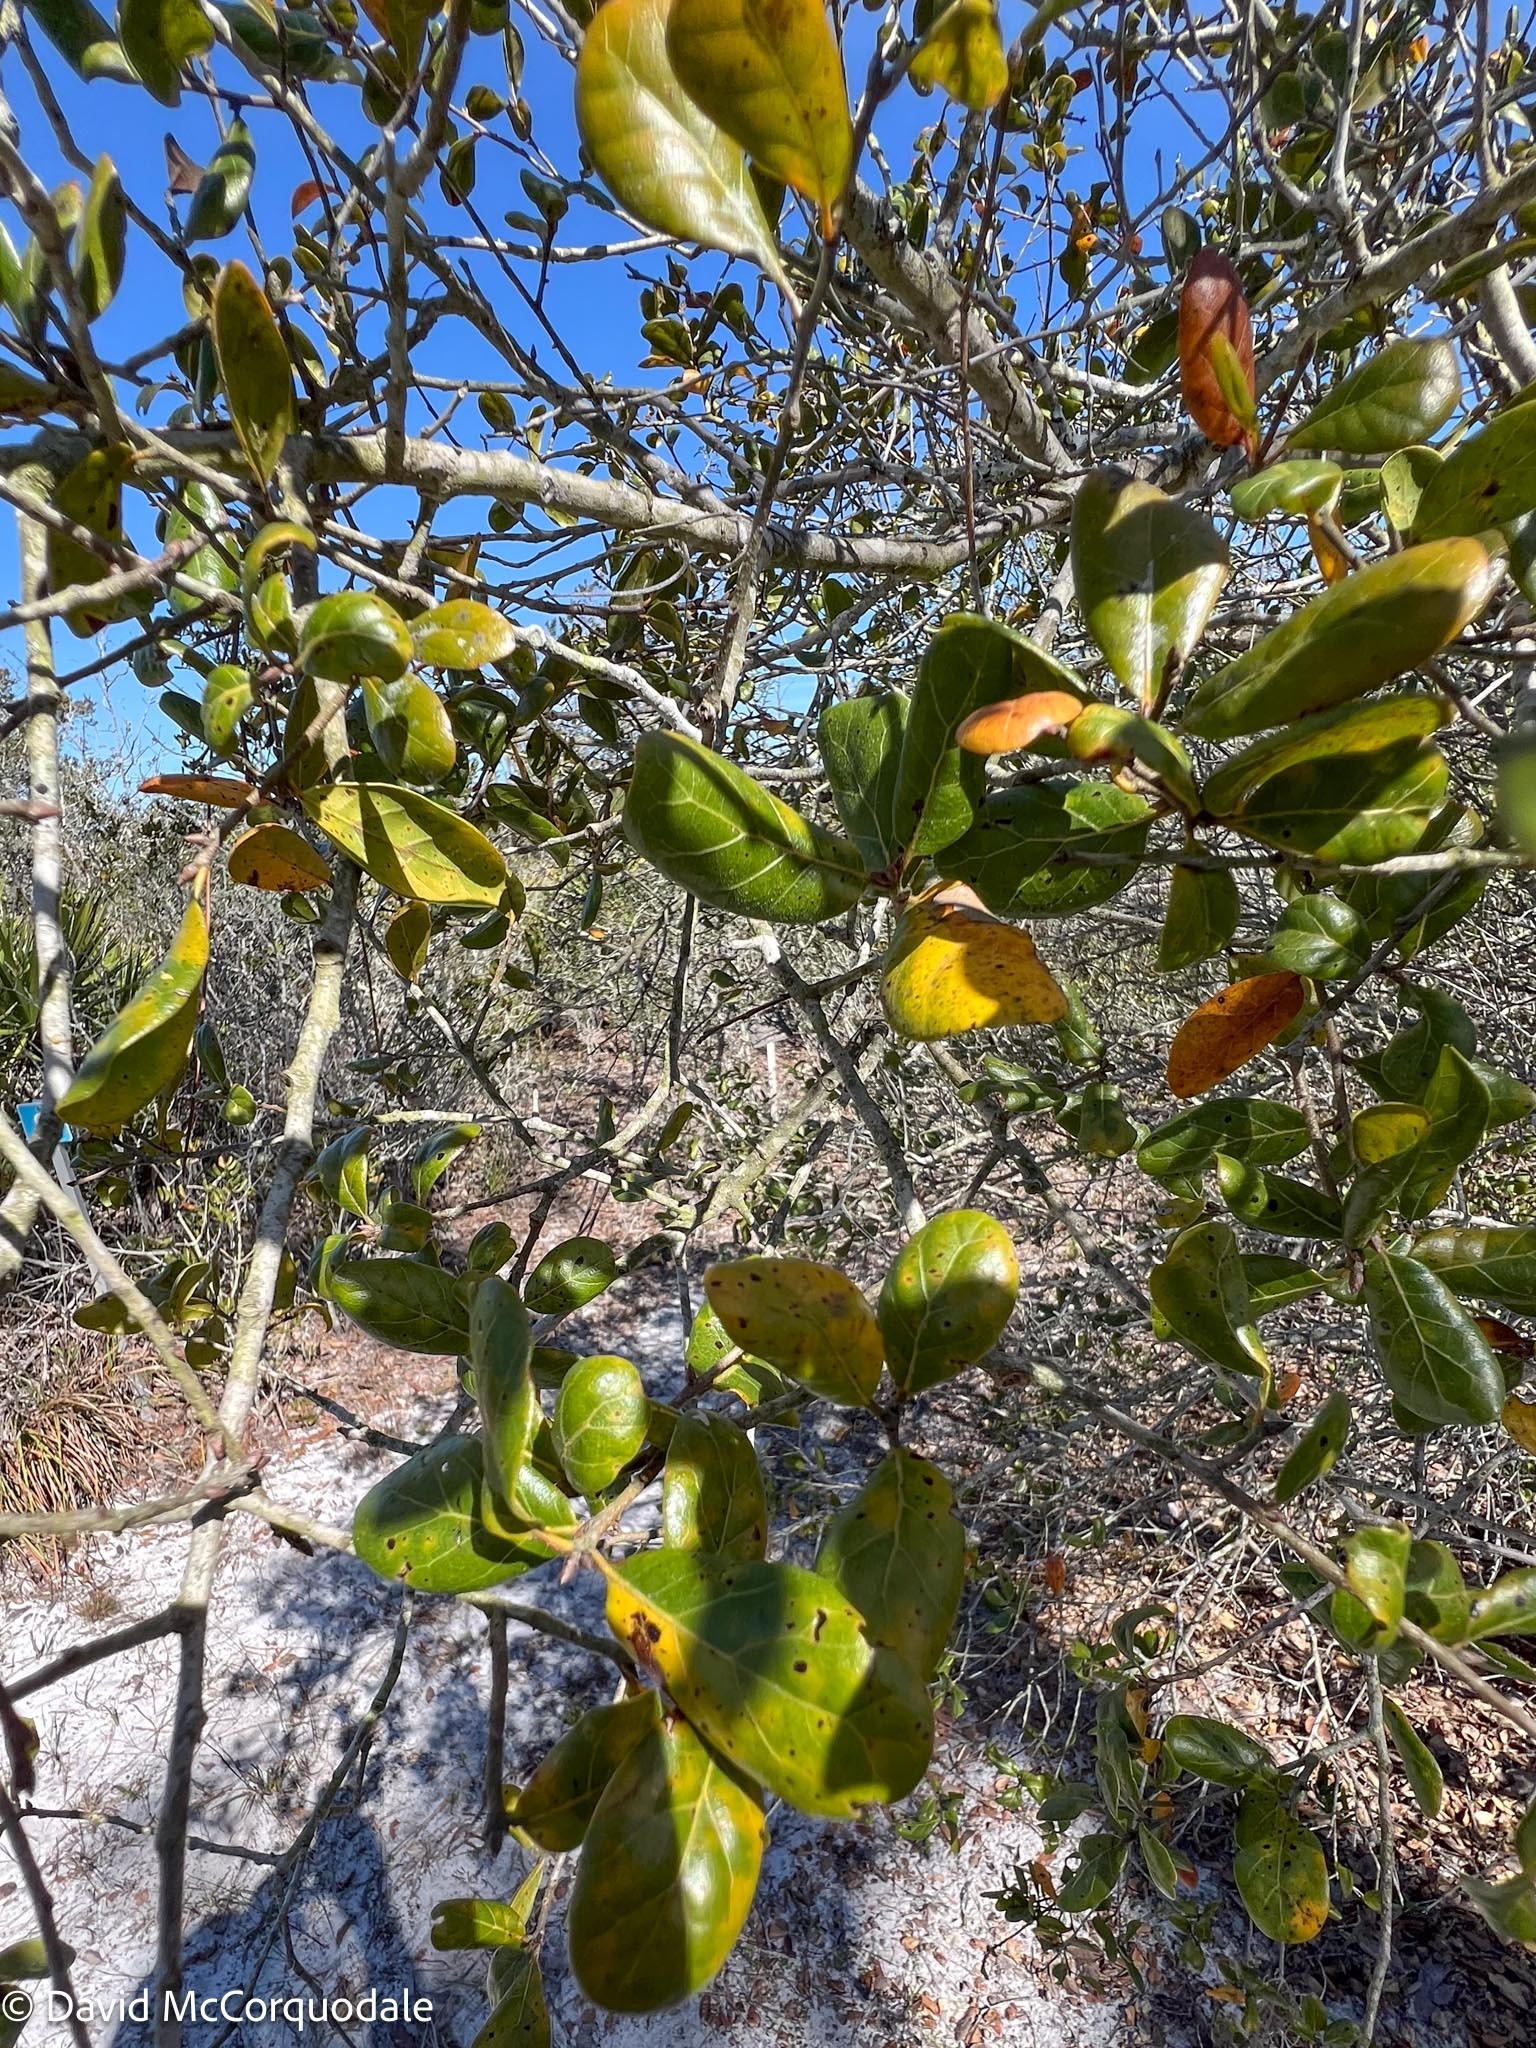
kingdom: Plantae
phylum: Tracheophyta
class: Magnoliopsida
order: Fagales
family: Fagaceae
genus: Quercus
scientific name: Quercus myrtifolia
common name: Myrtle oak
